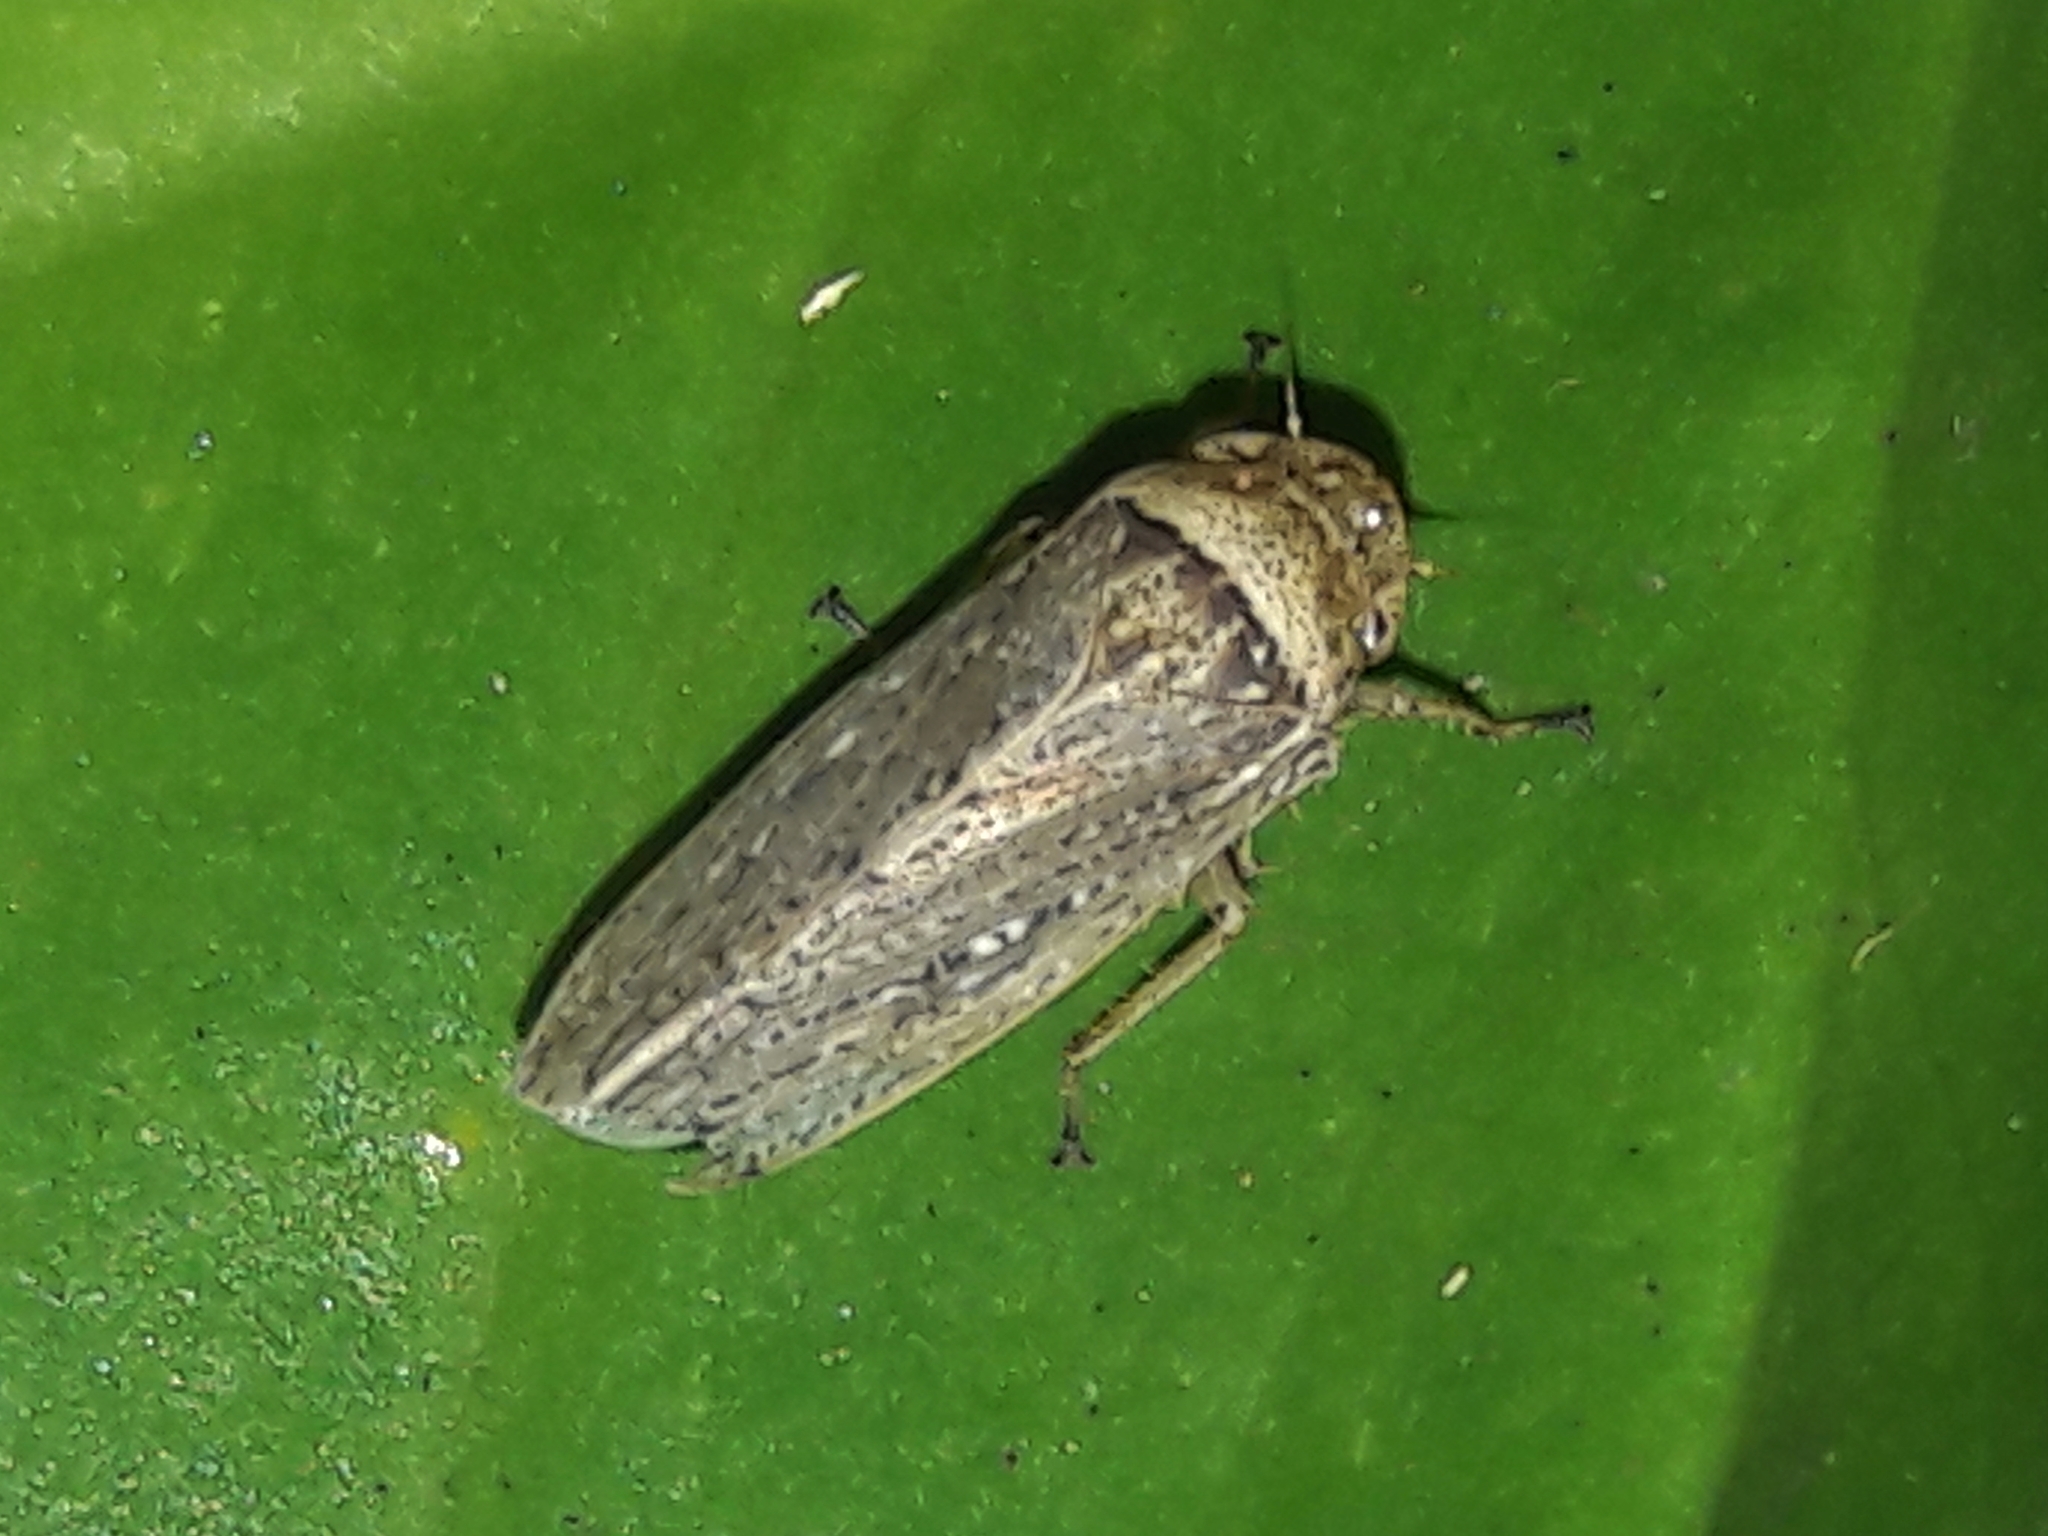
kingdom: Animalia
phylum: Arthropoda
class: Insecta
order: Hemiptera
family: Cicadellidae
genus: Sordana
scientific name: Sordana sordida
